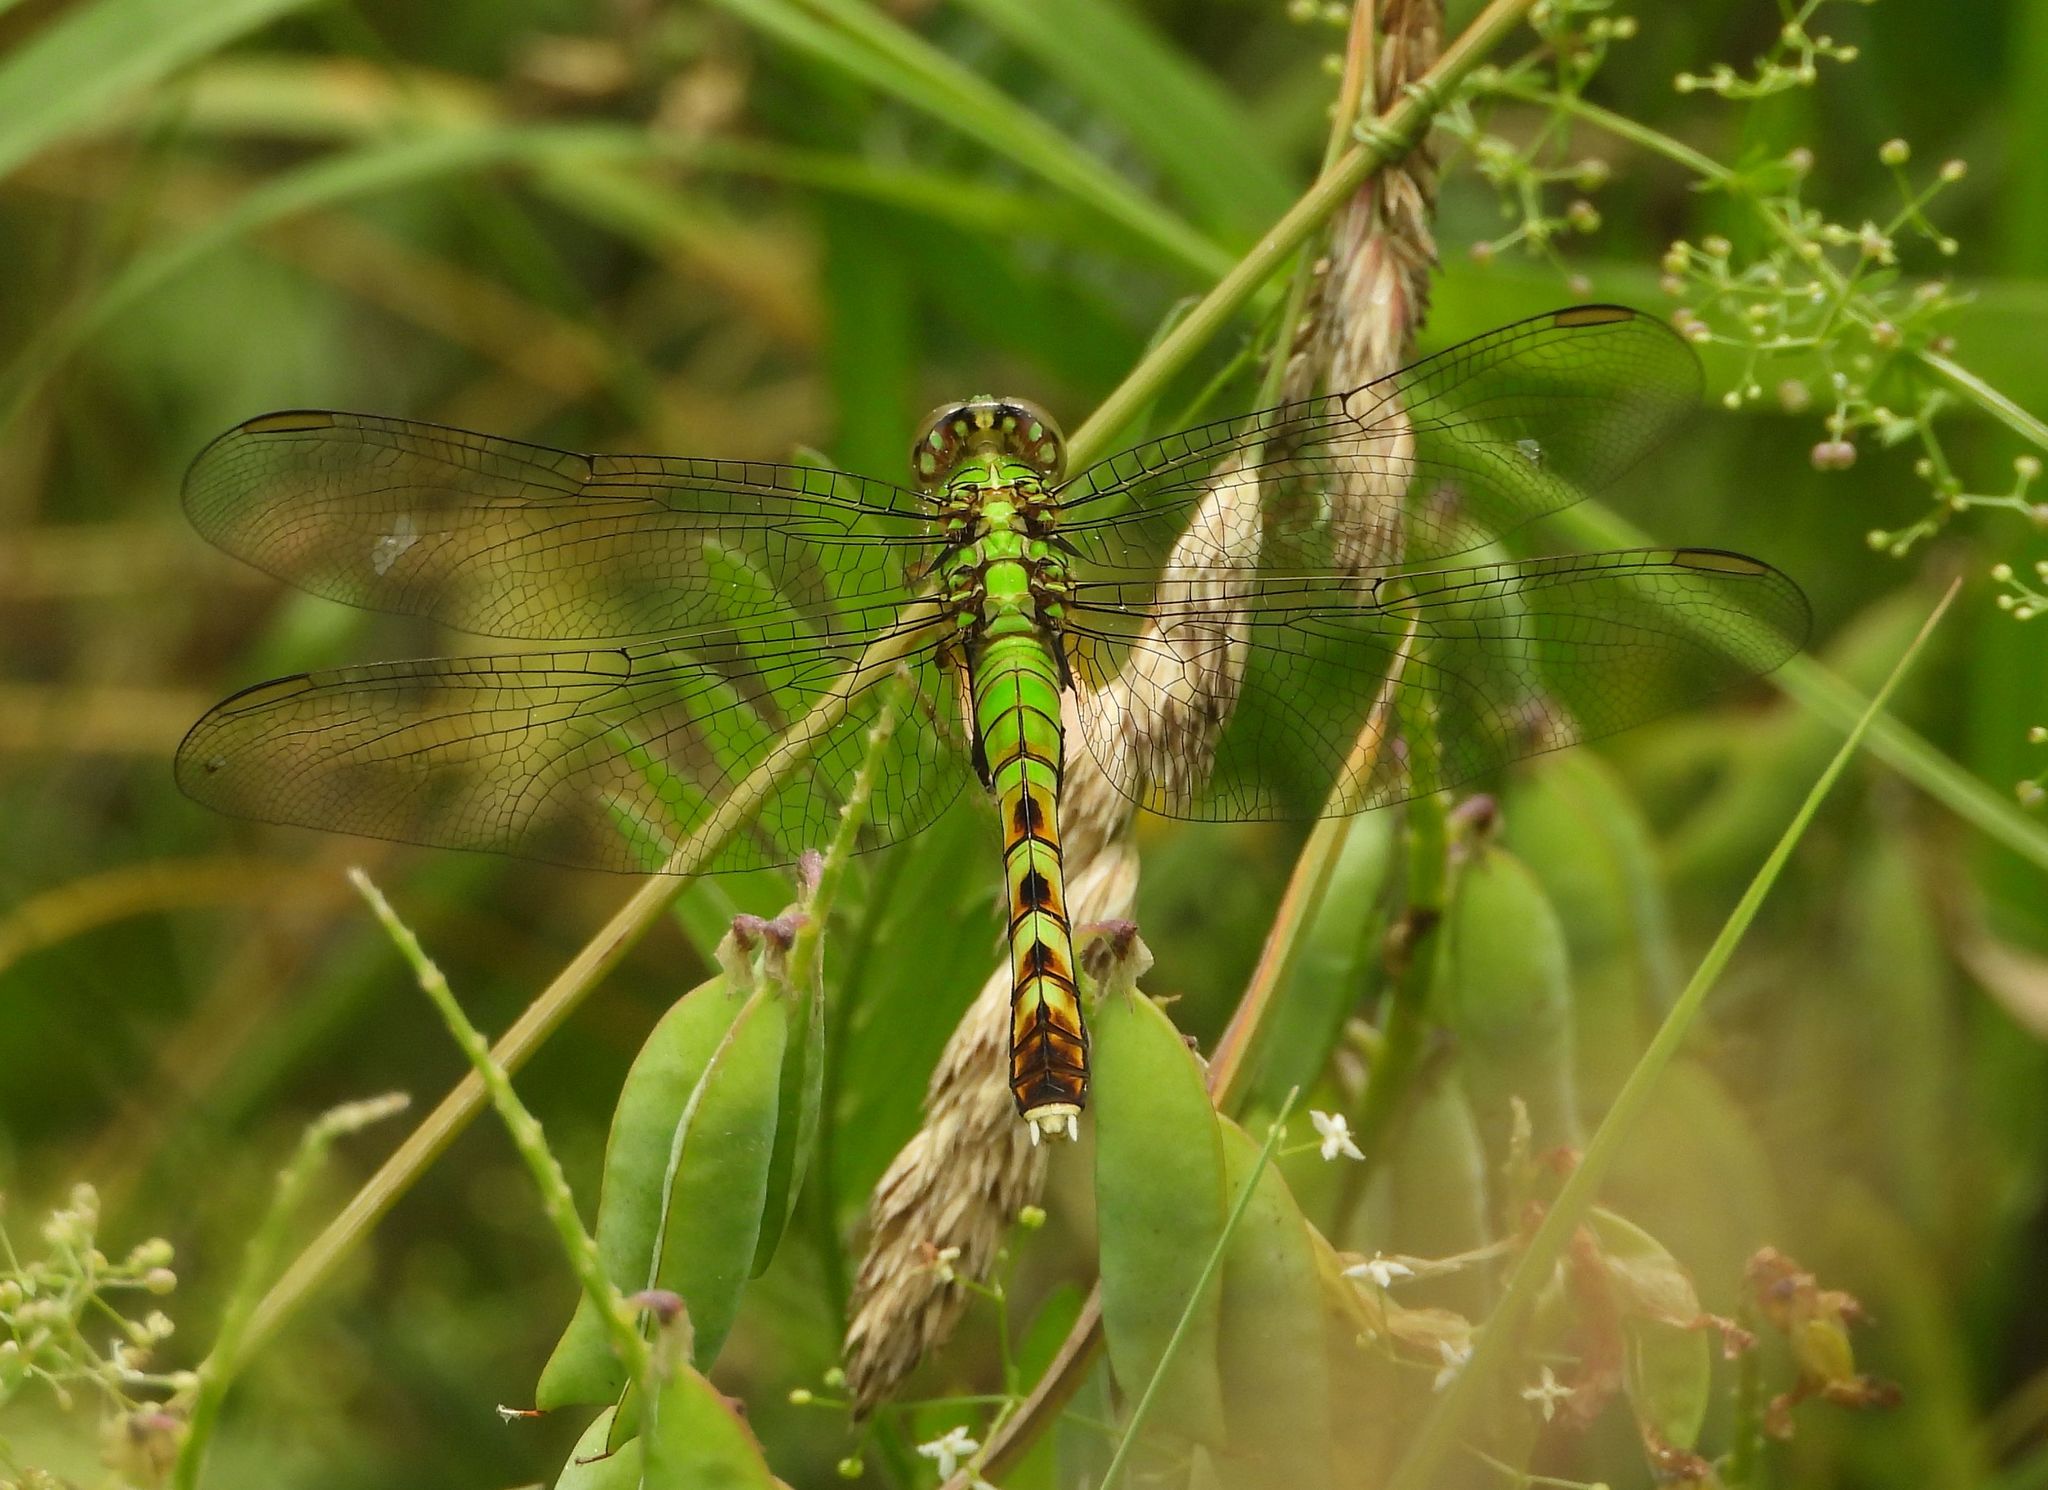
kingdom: Animalia
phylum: Arthropoda
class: Insecta
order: Odonata
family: Libellulidae
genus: Erythemis
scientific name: Erythemis simplicicollis
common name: Eastern pondhawk
